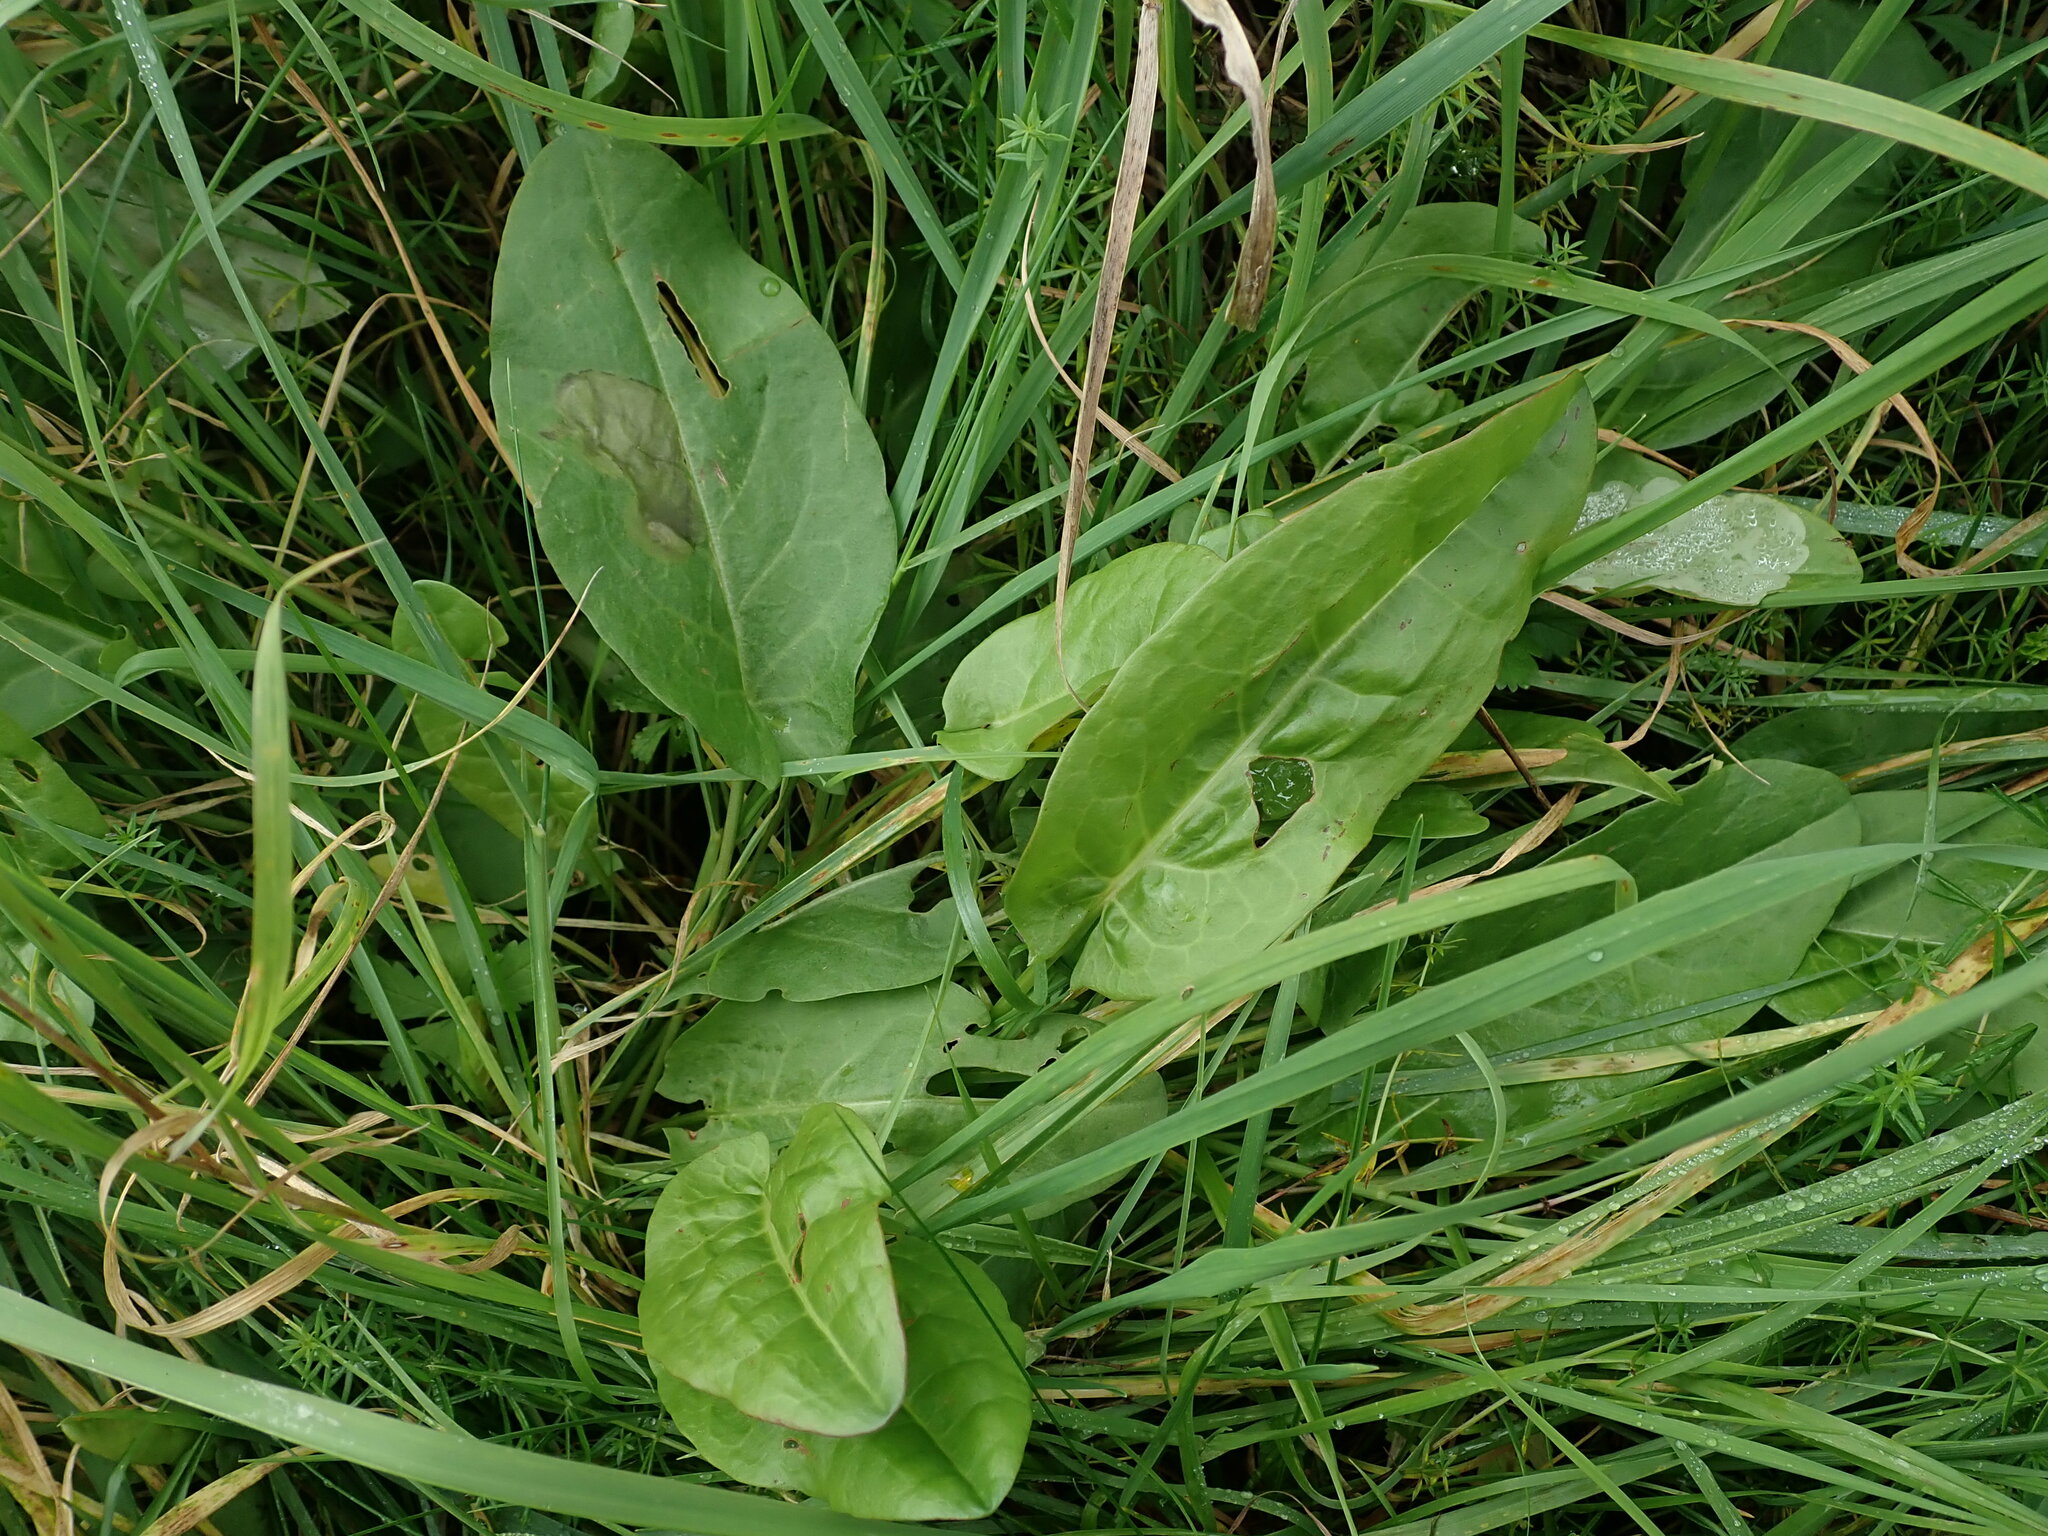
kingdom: Plantae
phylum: Tracheophyta
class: Magnoliopsida
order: Caryophyllales
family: Polygonaceae
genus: Rumex
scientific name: Rumex acetosa
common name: Garden sorrel
